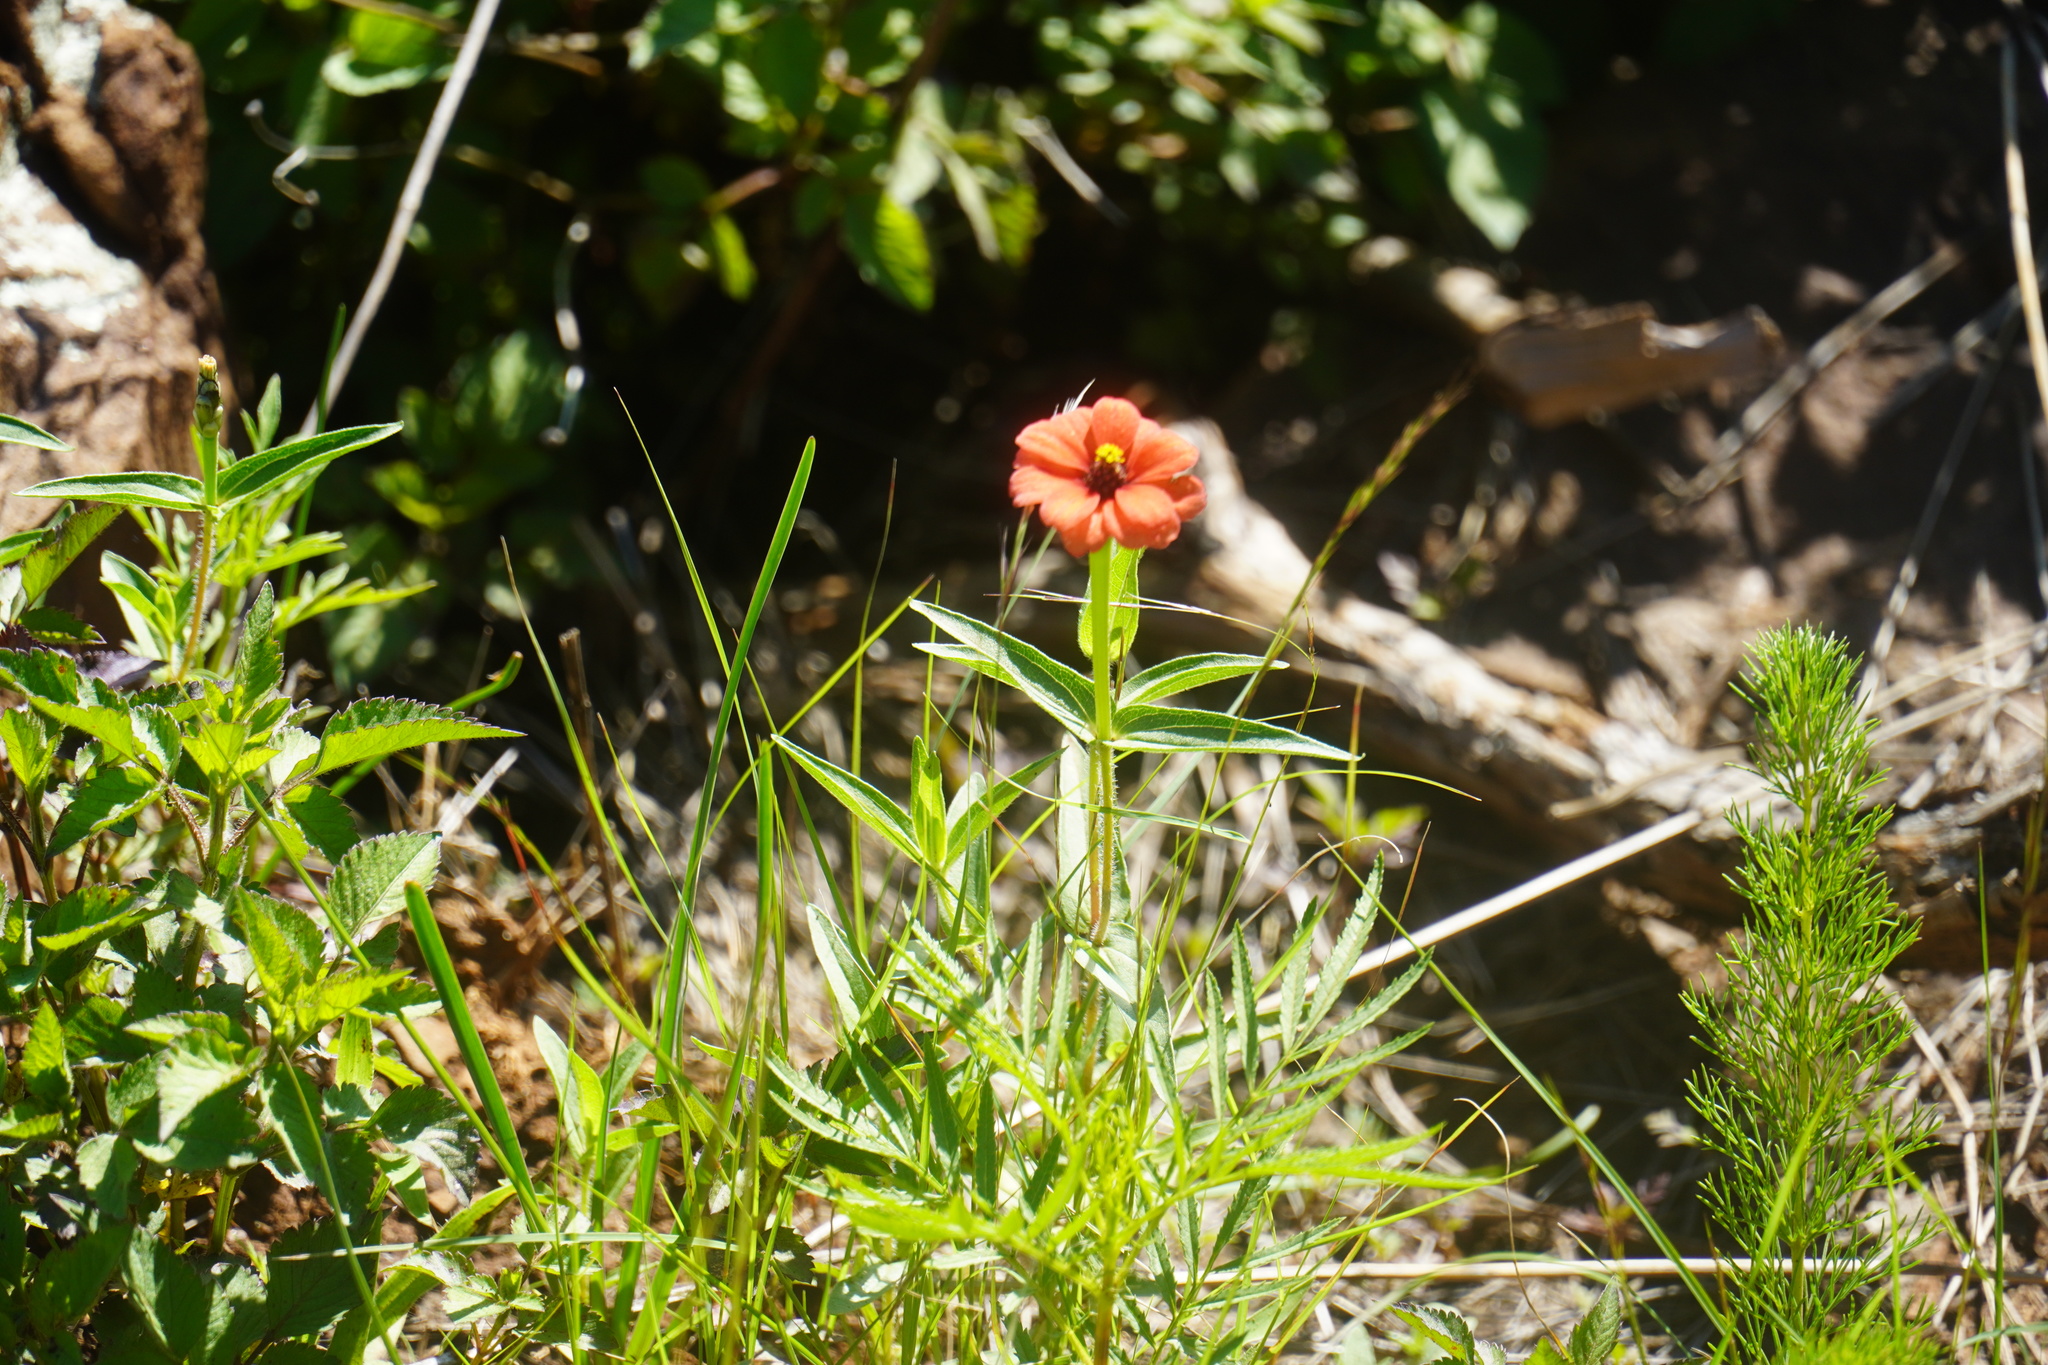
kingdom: Plantae
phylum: Tracheophyta
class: Magnoliopsida
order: Asterales
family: Asteraceae
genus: Zinnia
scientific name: Zinnia peruviana
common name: Peruvian zinnia
